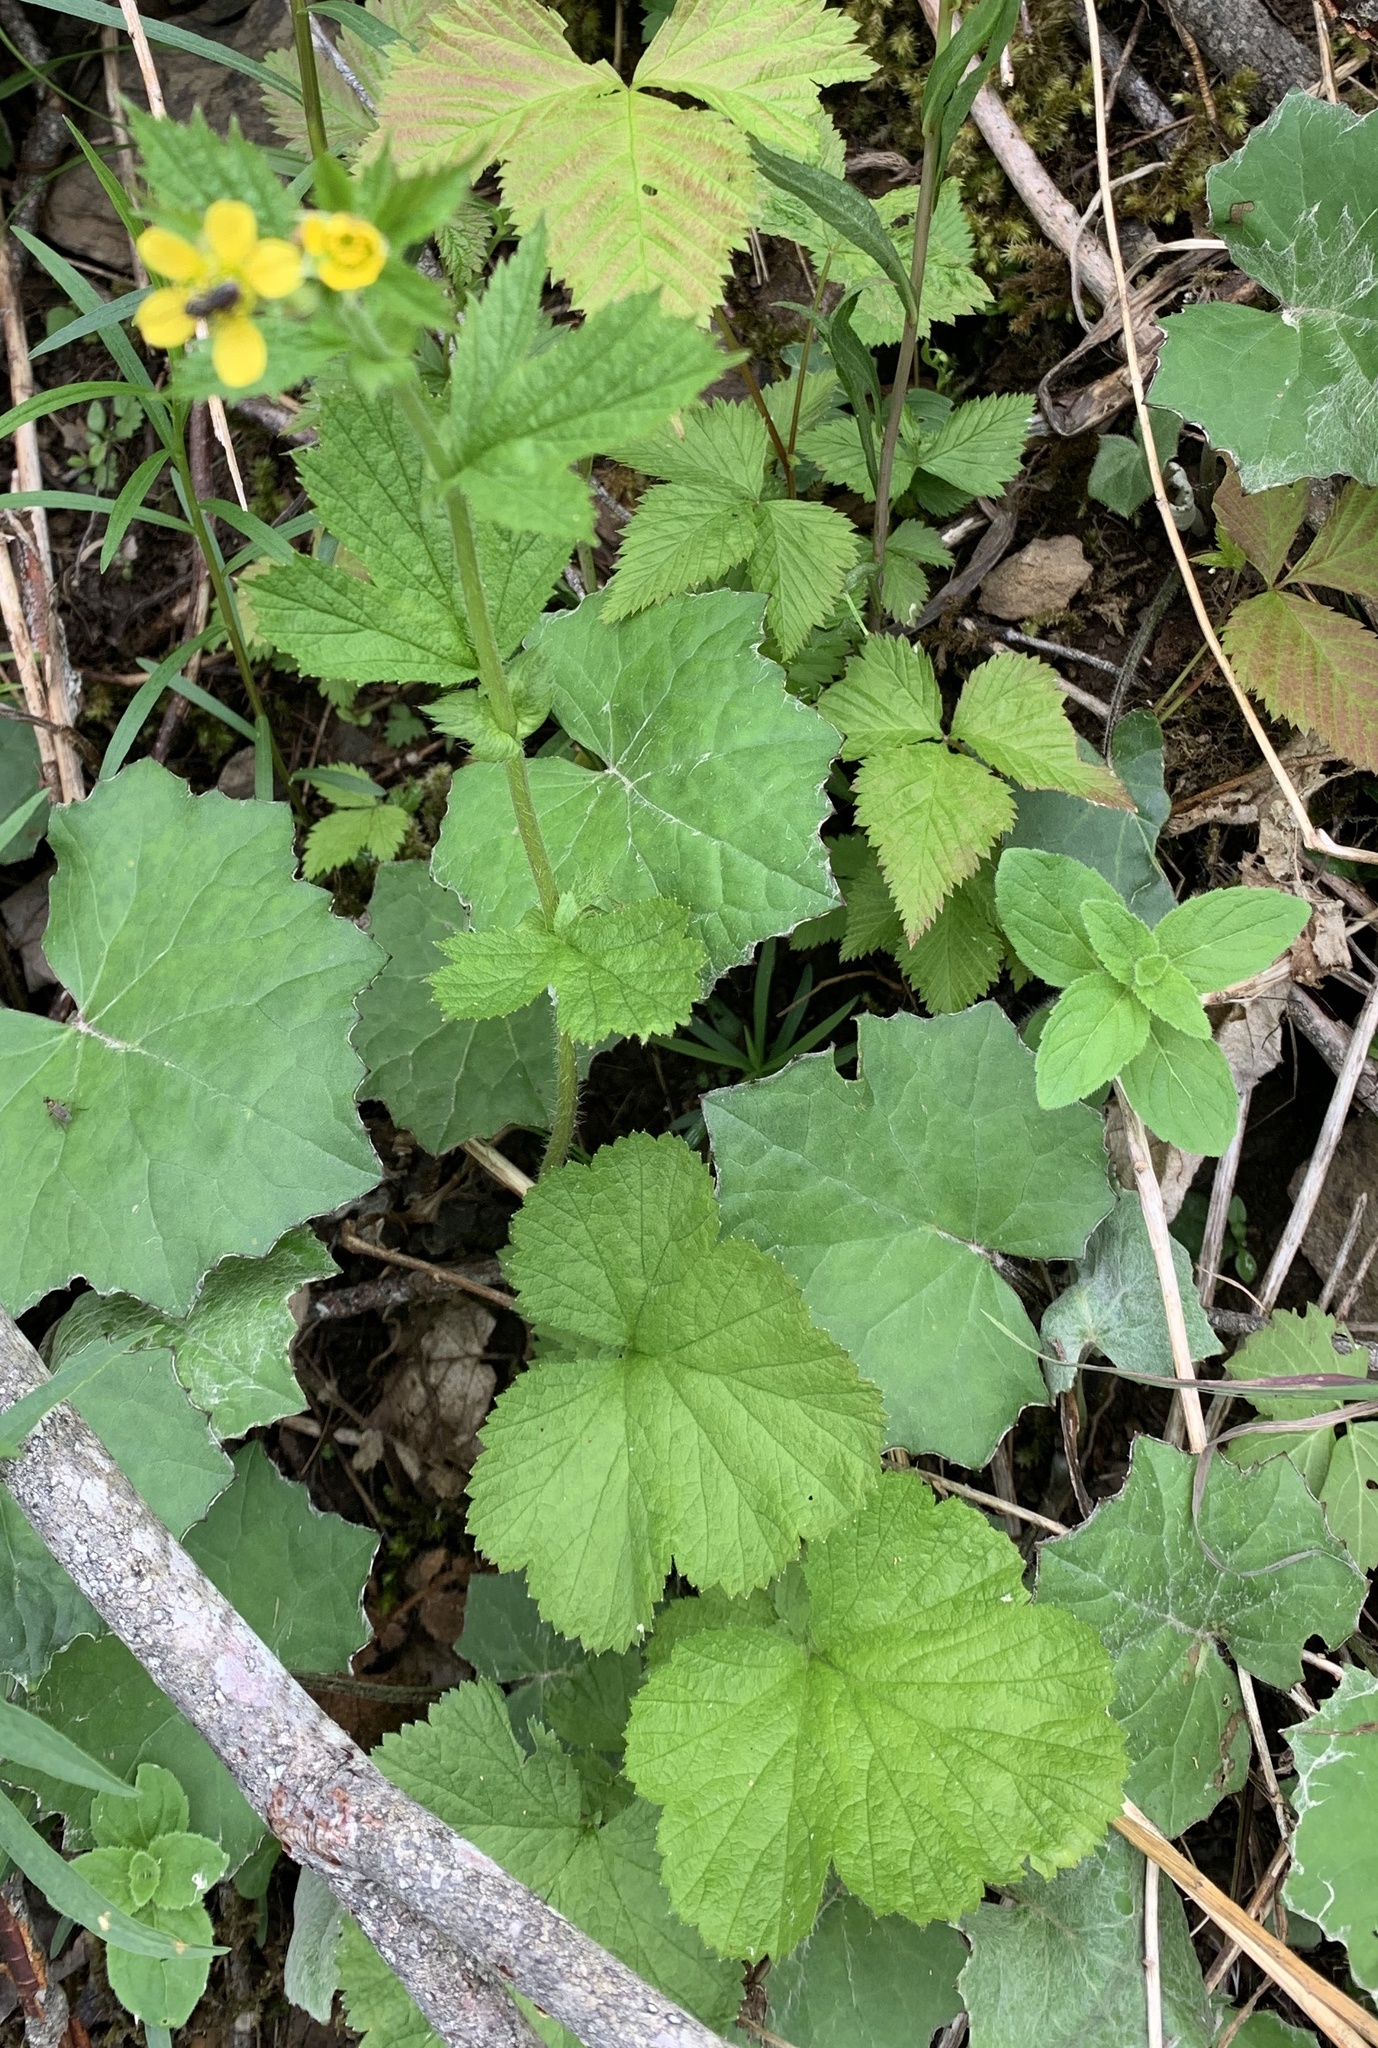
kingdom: Plantae
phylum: Tracheophyta
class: Magnoliopsida
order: Rosales
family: Rosaceae
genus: Geum
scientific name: Geum macrophyllum
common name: Large-leaved avens
